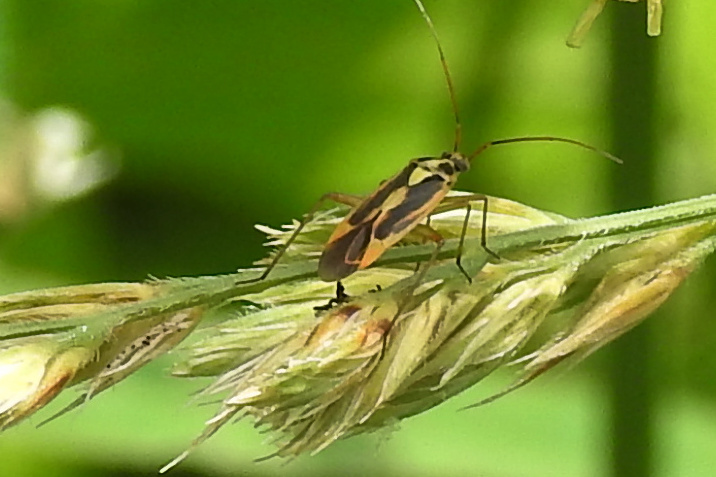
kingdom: Animalia
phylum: Arthropoda
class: Insecta
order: Hemiptera
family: Miridae
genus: Stenotus
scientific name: Stenotus binotatus
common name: Plant bug
